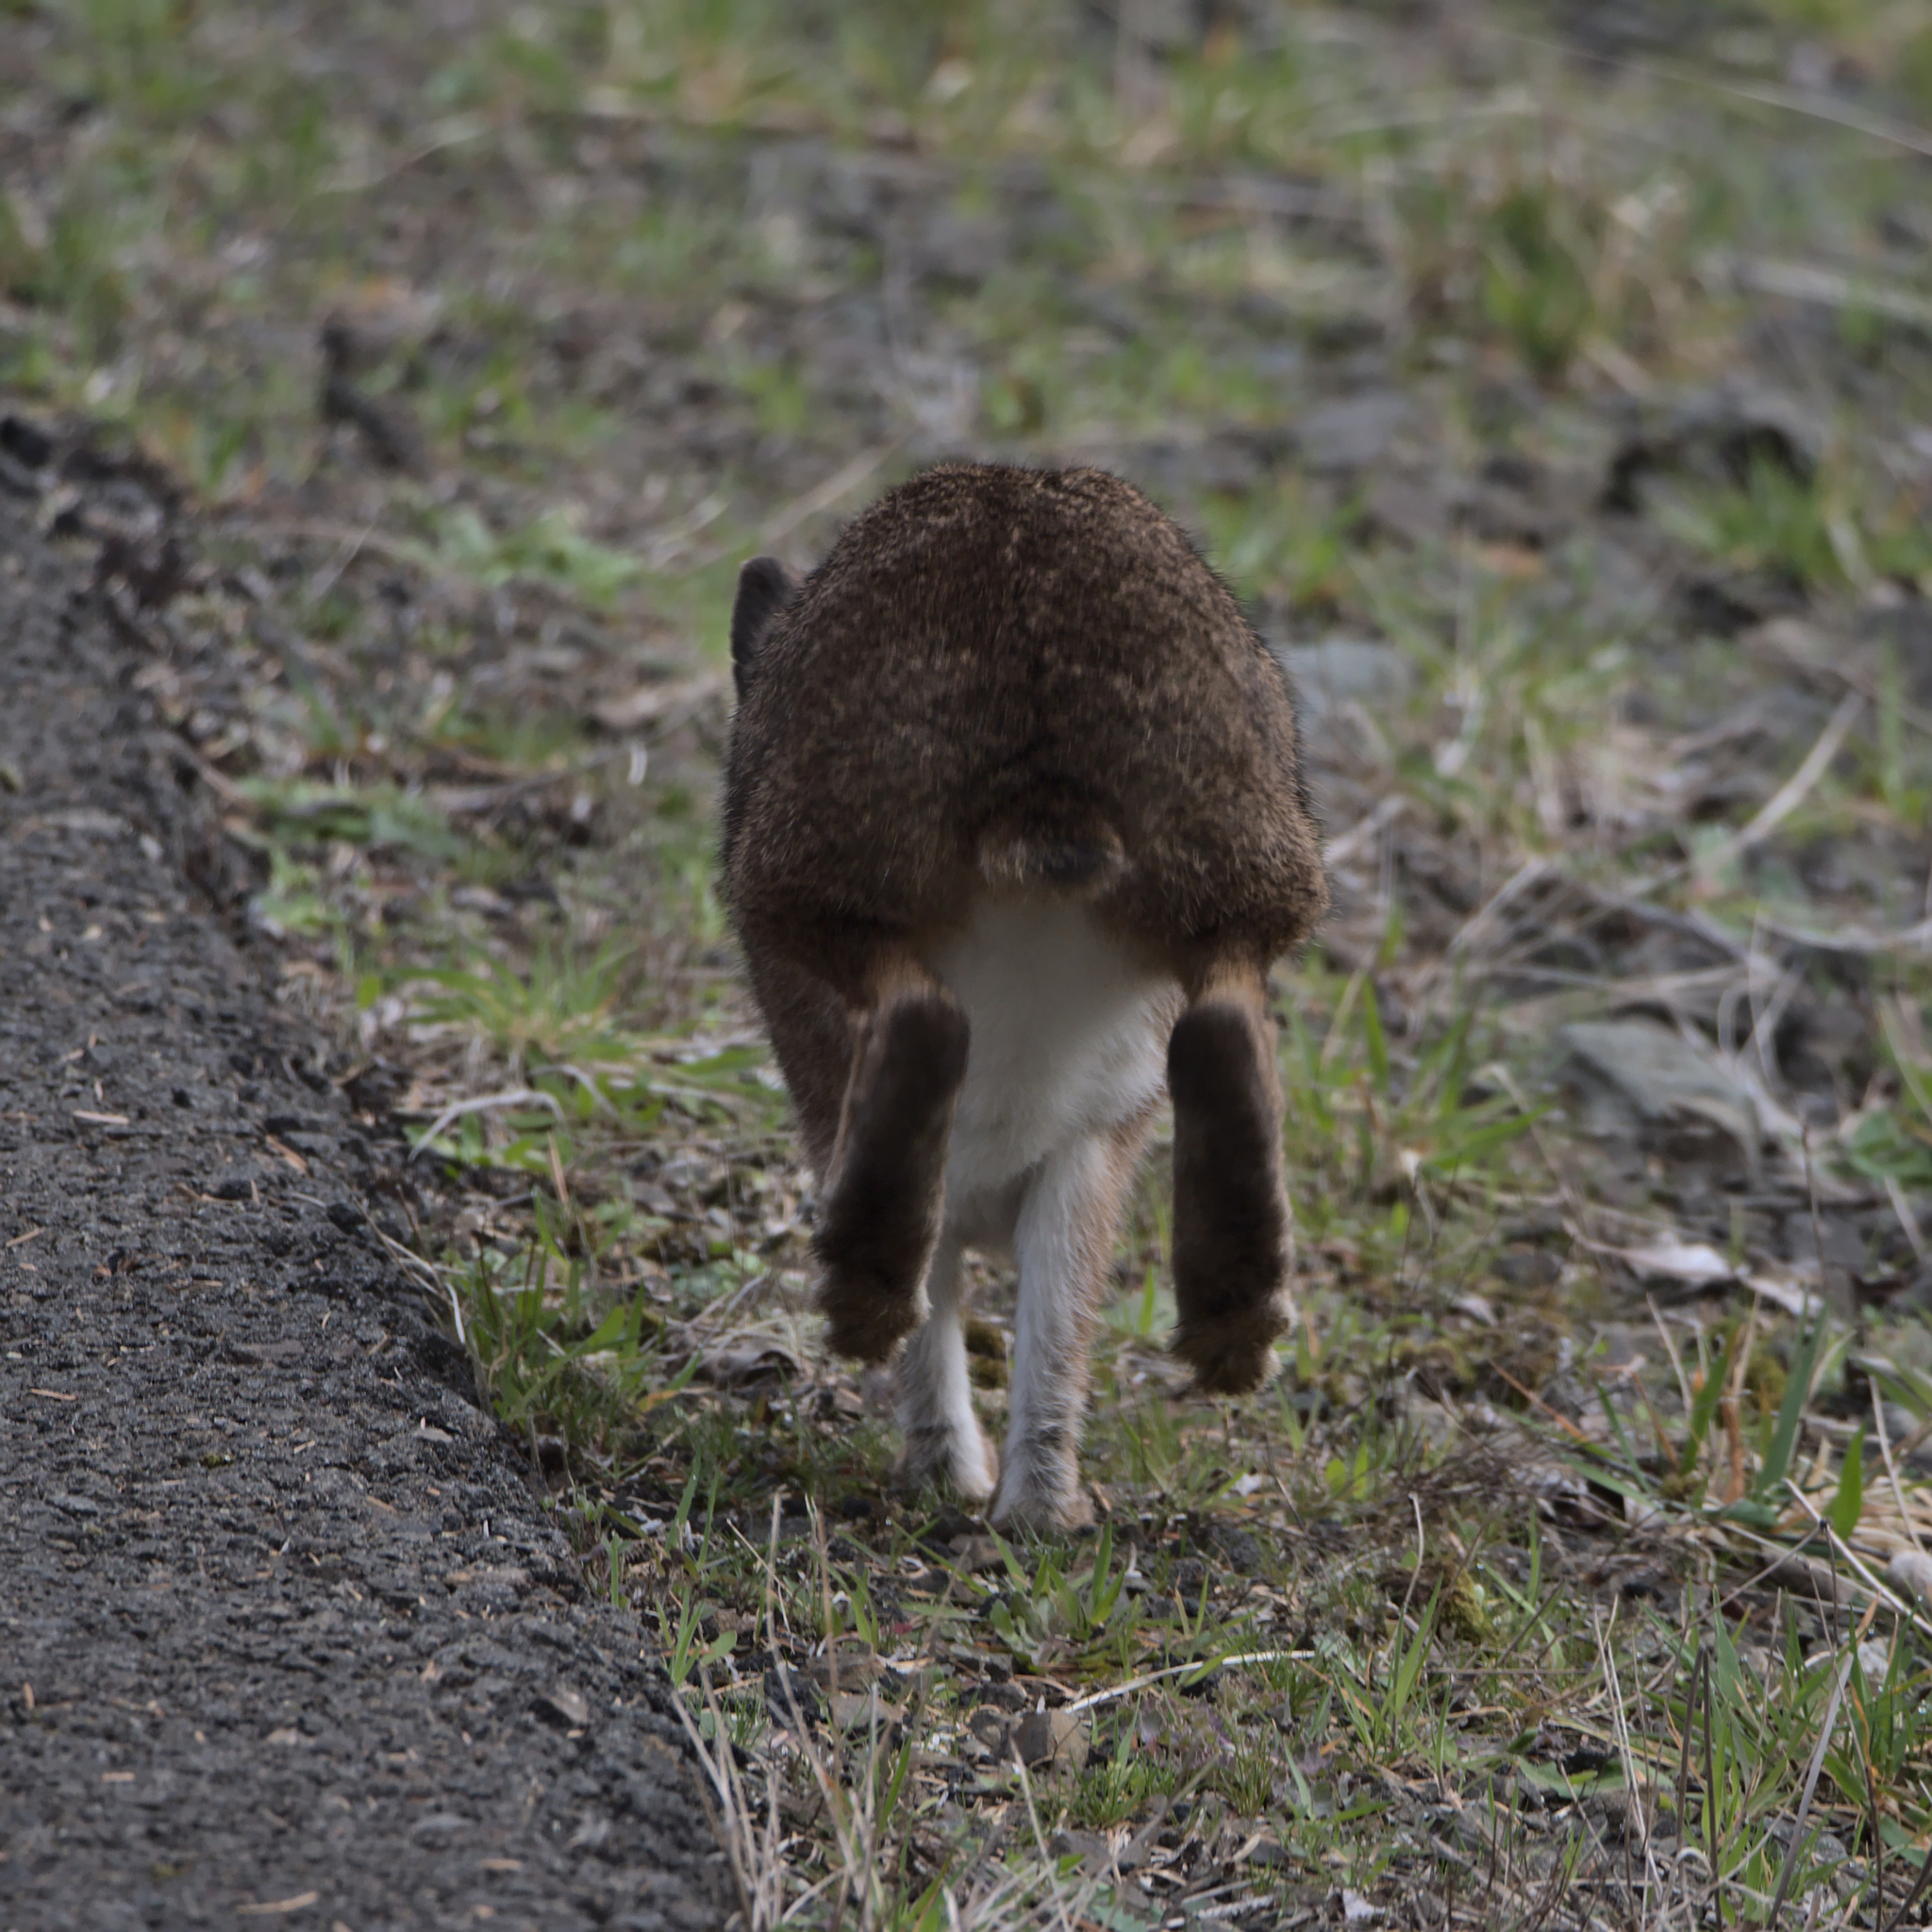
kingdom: Animalia
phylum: Chordata
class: Mammalia
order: Lagomorpha
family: Leporidae
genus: Lepus
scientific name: Lepus americanus
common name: Snowshoe hare
